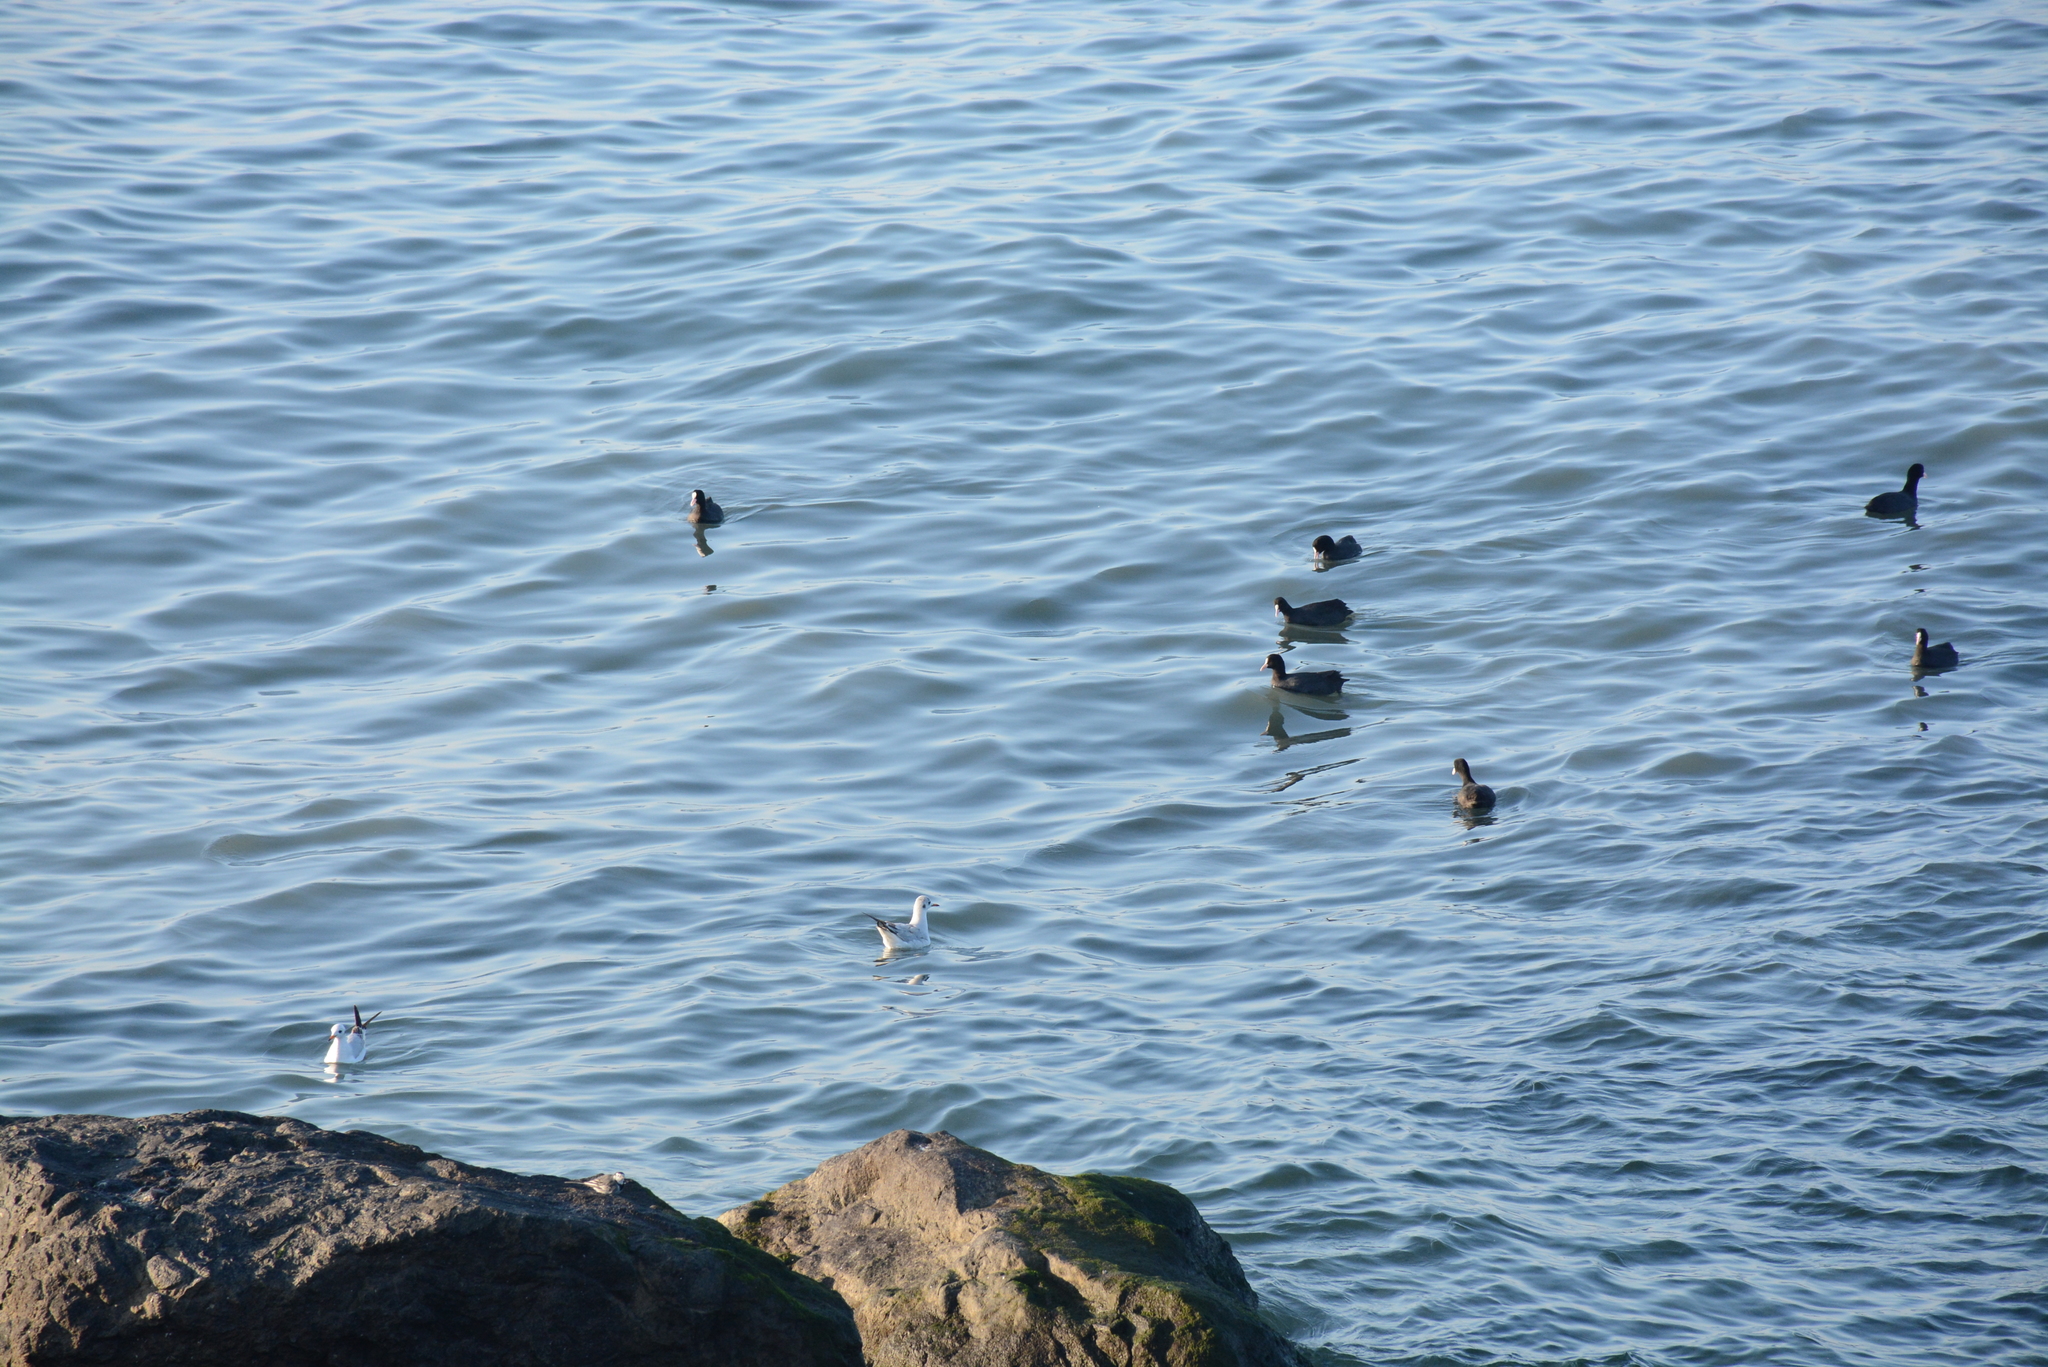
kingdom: Animalia
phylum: Chordata
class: Aves
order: Gruiformes
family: Rallidae
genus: Fulica
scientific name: Fulica atra
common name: Eurasian coot
